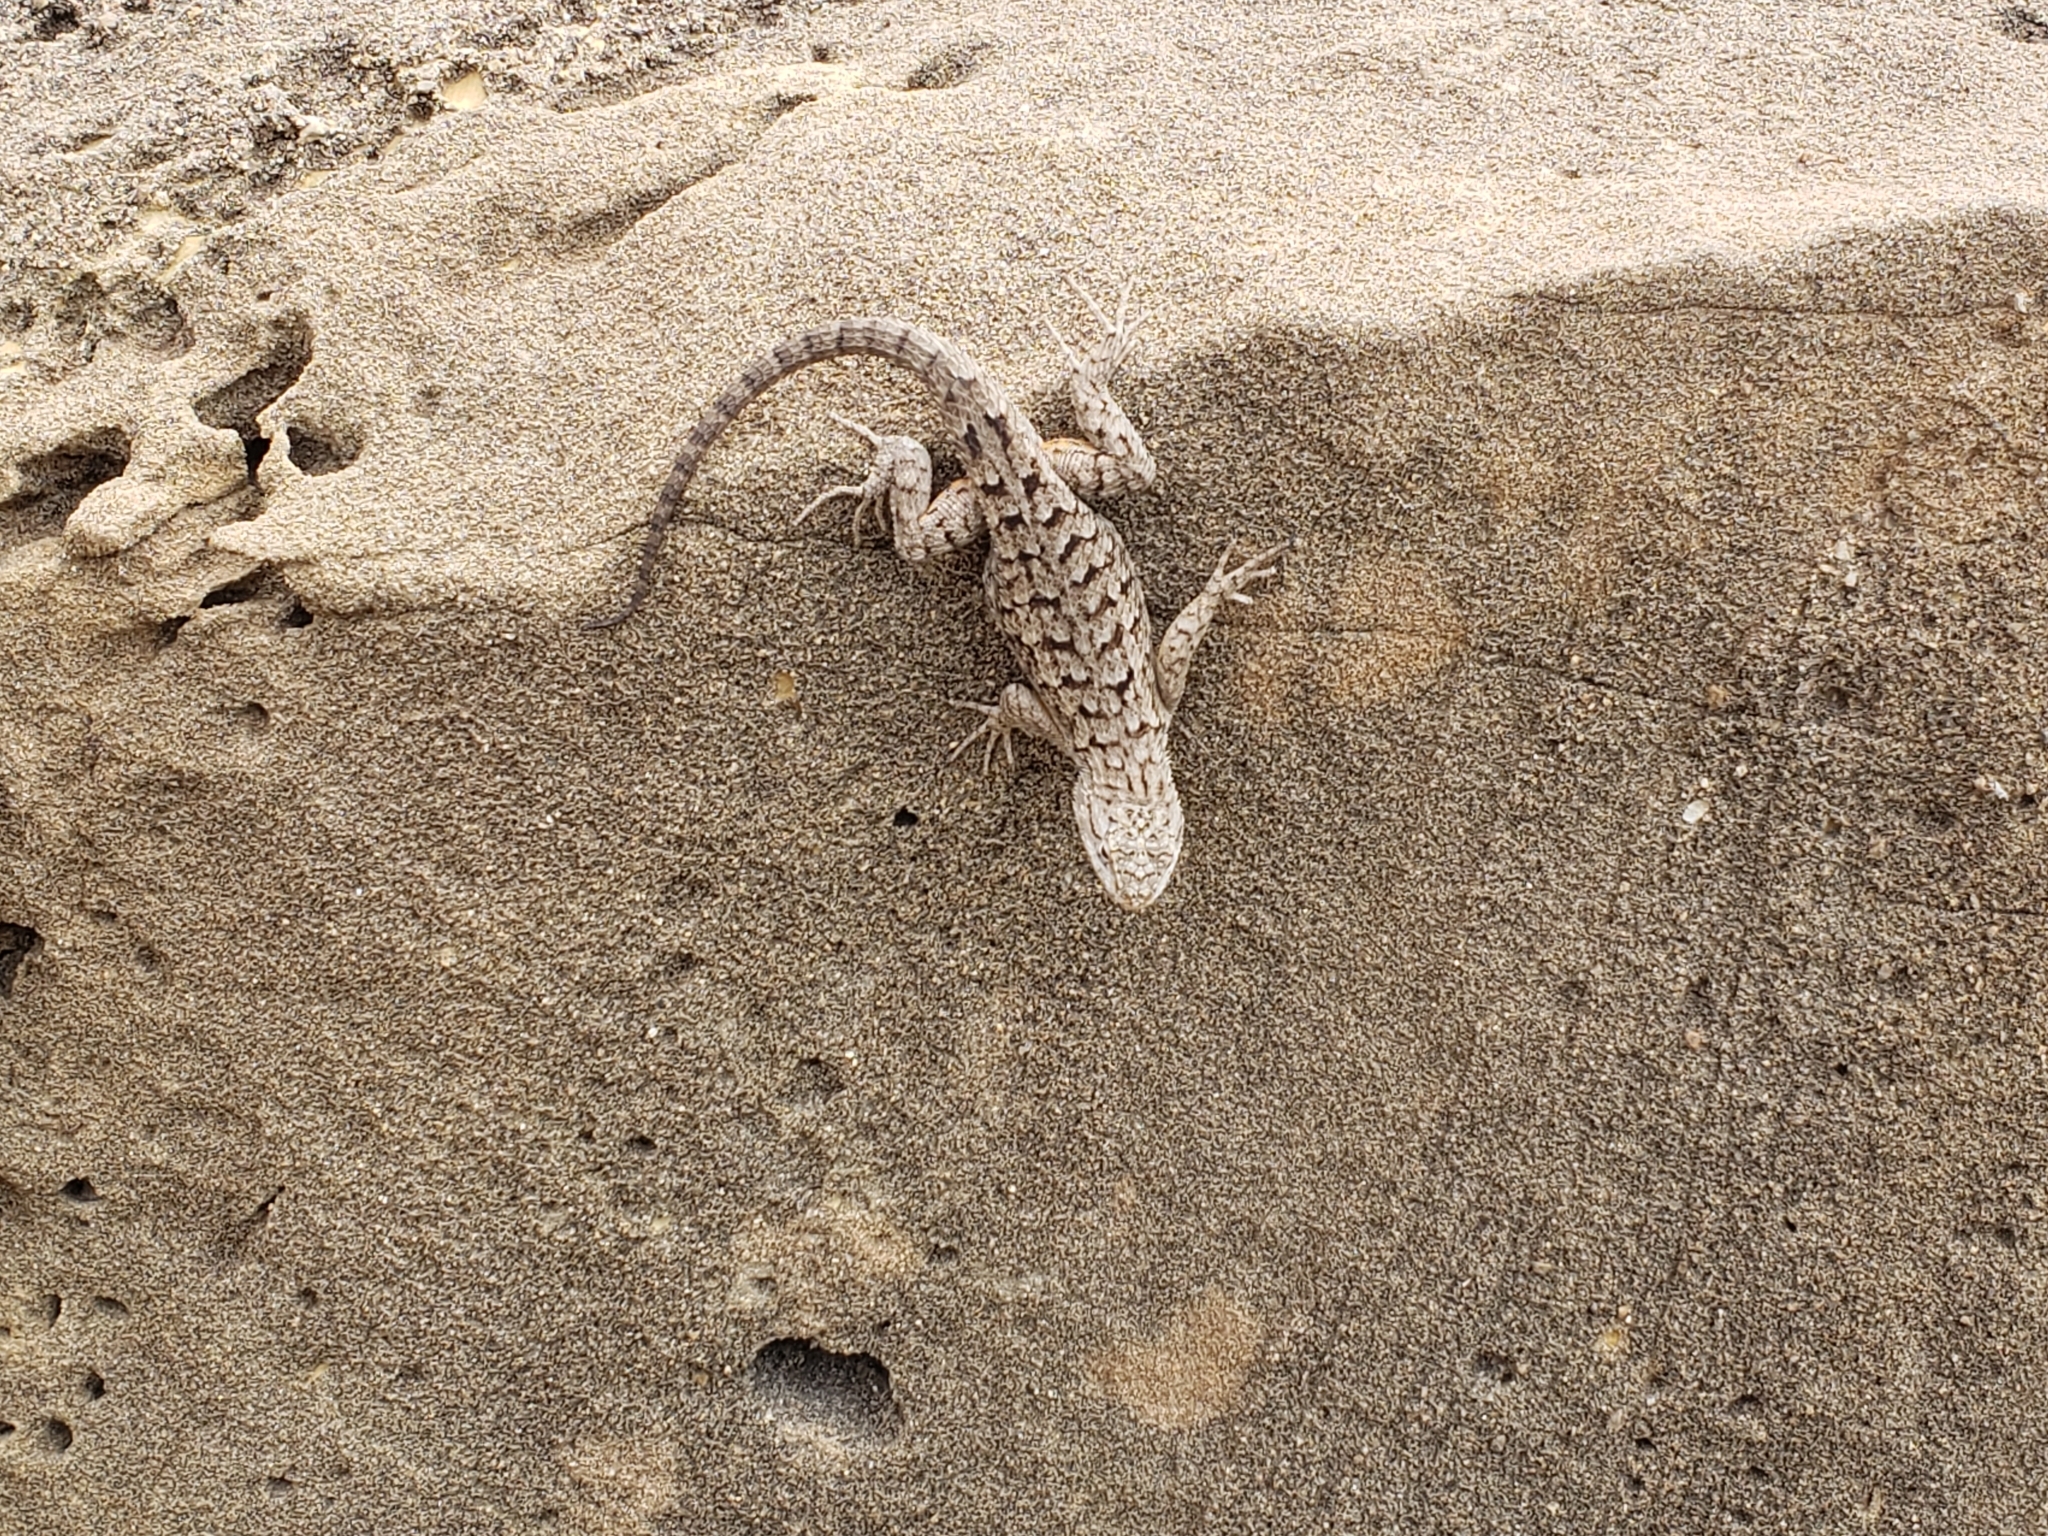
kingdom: Animalia
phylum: Chordata
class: Squamata
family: Phrynosomatidae
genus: Sceloporus
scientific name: Sceloporus occidentalis
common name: Western fence lizard
